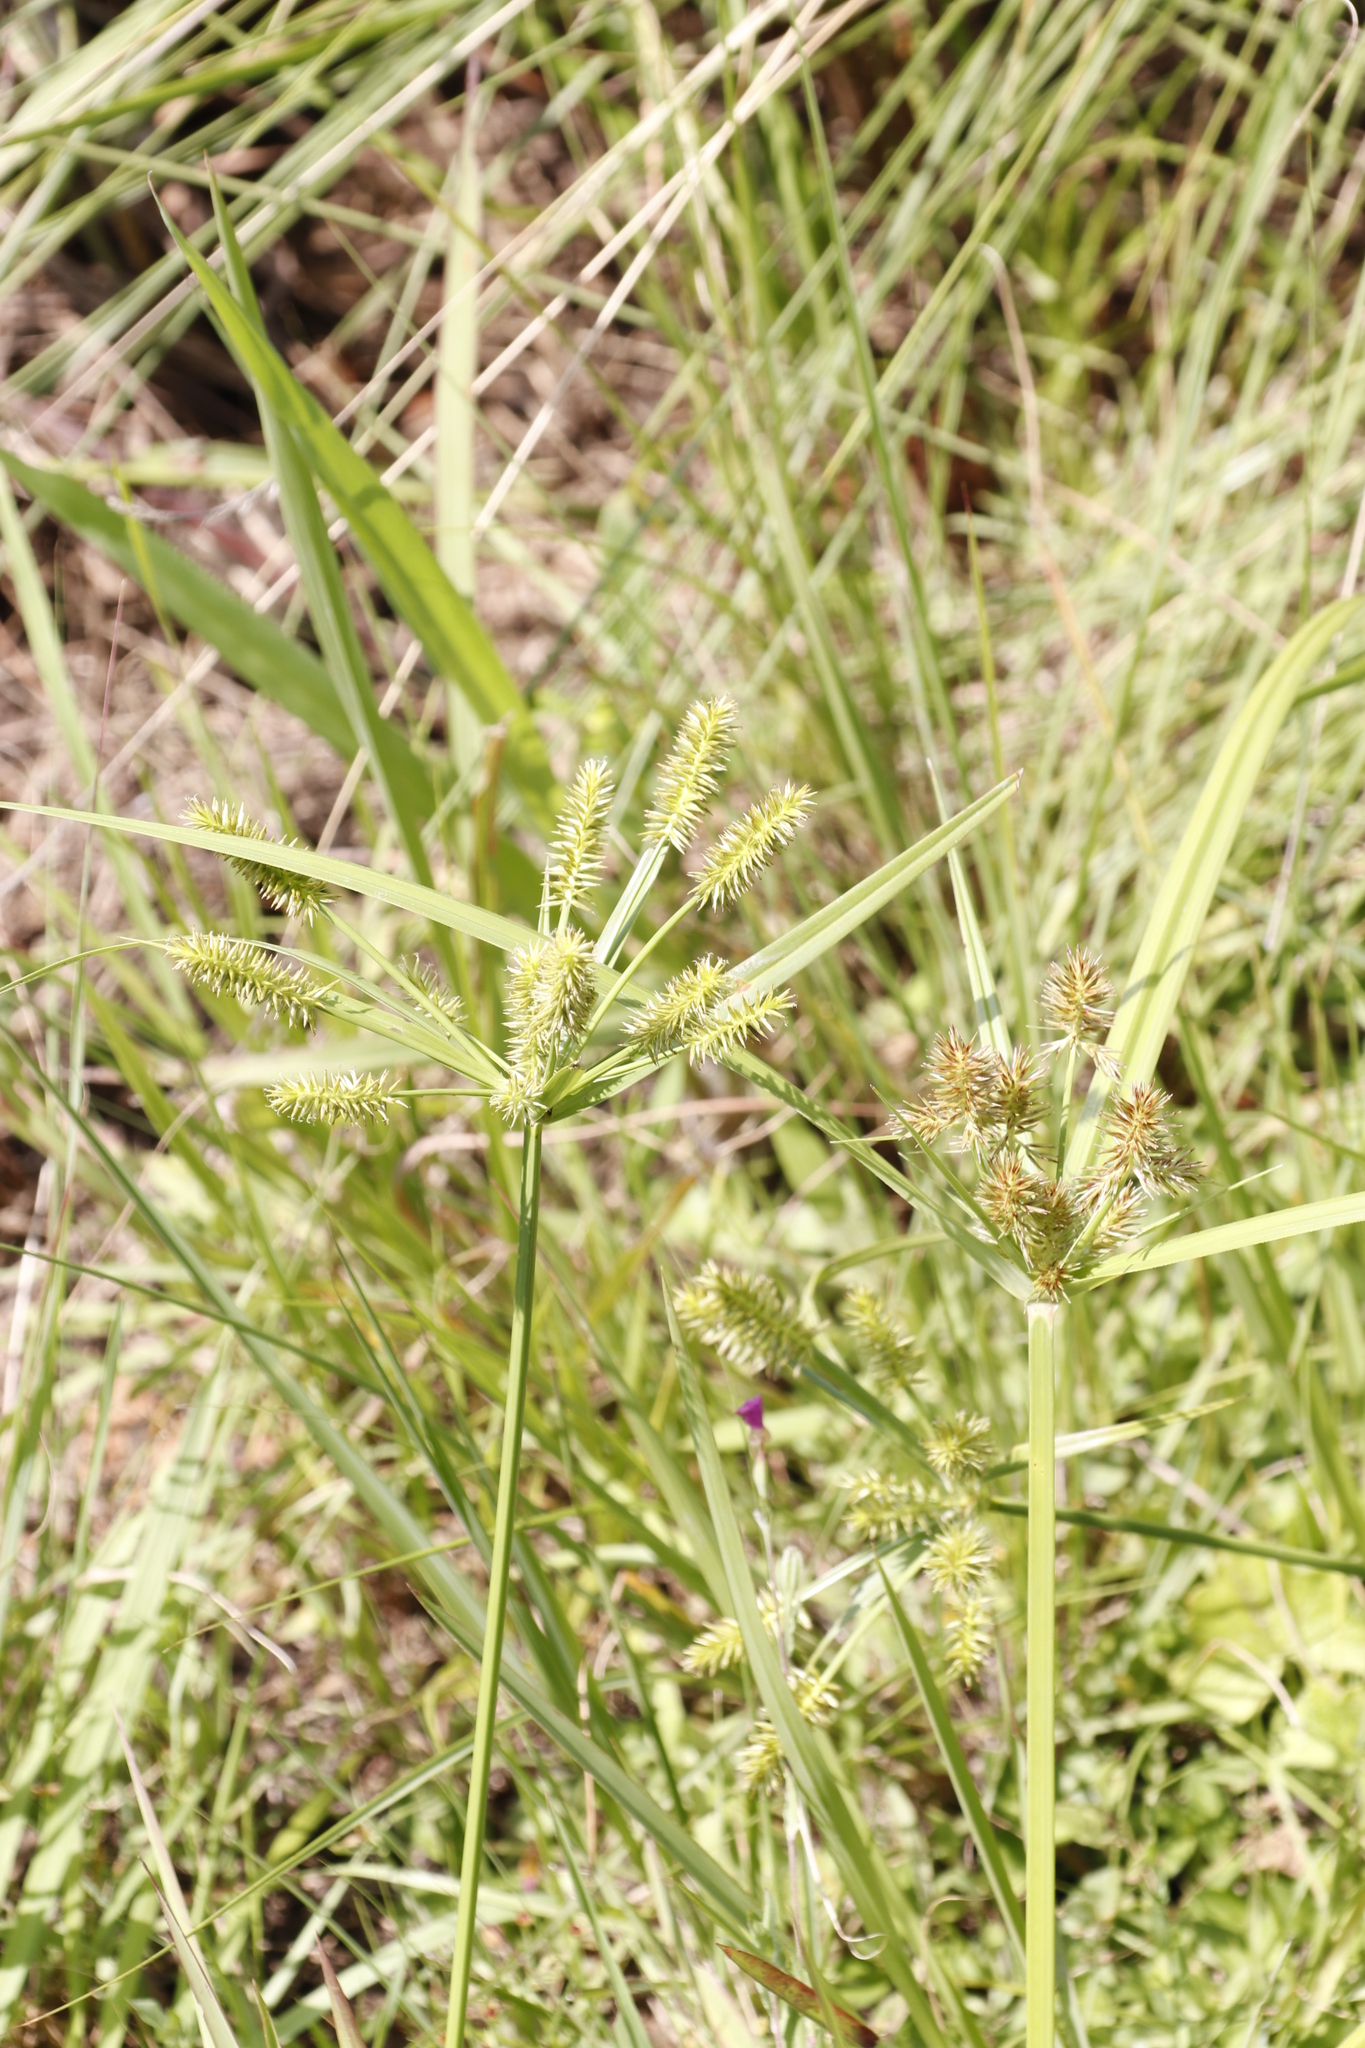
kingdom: Plantae
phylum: Tracheophyta
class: Liliopsida
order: Poales
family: Cyperaceae
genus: Cyperus
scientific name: Cyperus cyperoides
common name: Pacific island flat sedge
